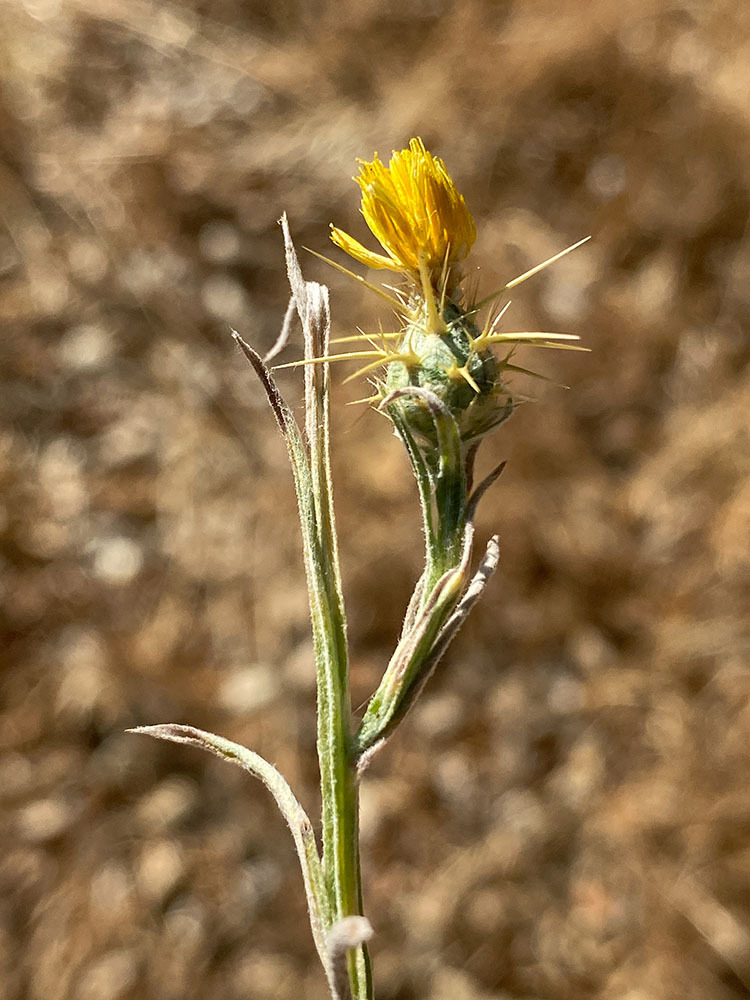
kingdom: Plantae
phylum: Tracheophyta
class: Magnoliopsida
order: Asterales
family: Asteraceae
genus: Centaurea
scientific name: Centaurea solstitialis
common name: Yellow star-thistle
